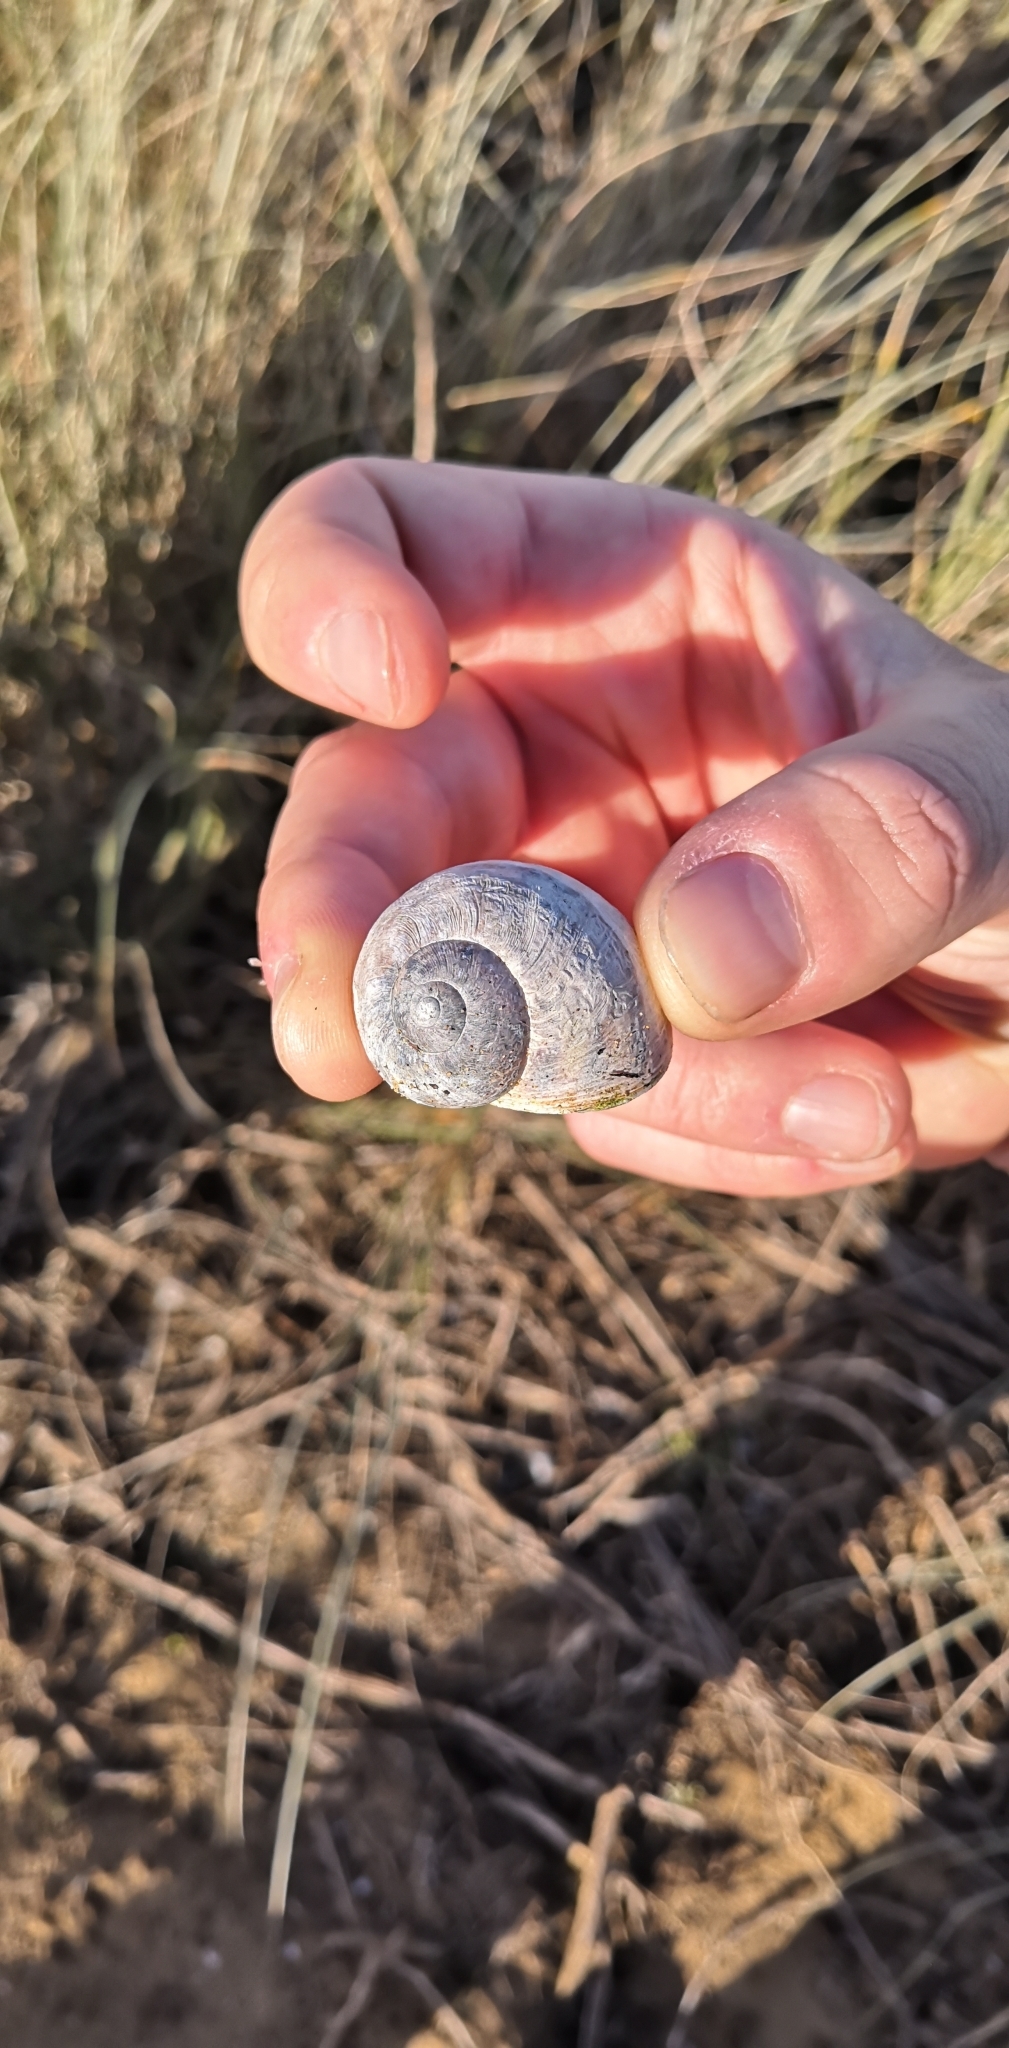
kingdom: Animalia
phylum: Mollusca
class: Gastropoda
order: Stylommatophora
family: Helicidae
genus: Cornu
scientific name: Cornu aspersum
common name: Brown garden snail
